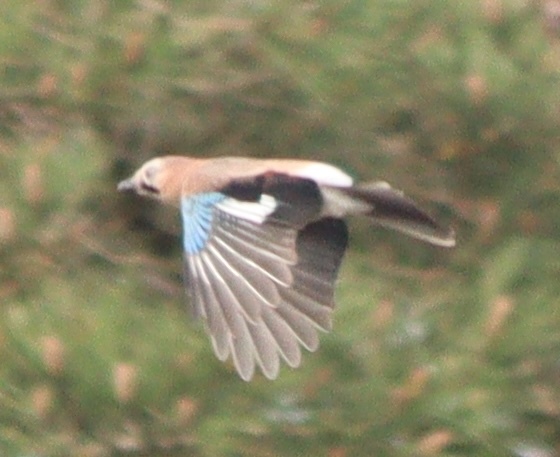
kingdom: Animalia
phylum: Chordata
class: Aves
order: Passeriformes
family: Corvidae
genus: Garrulus
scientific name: Garrulus glandarius
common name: Eurasian jay
